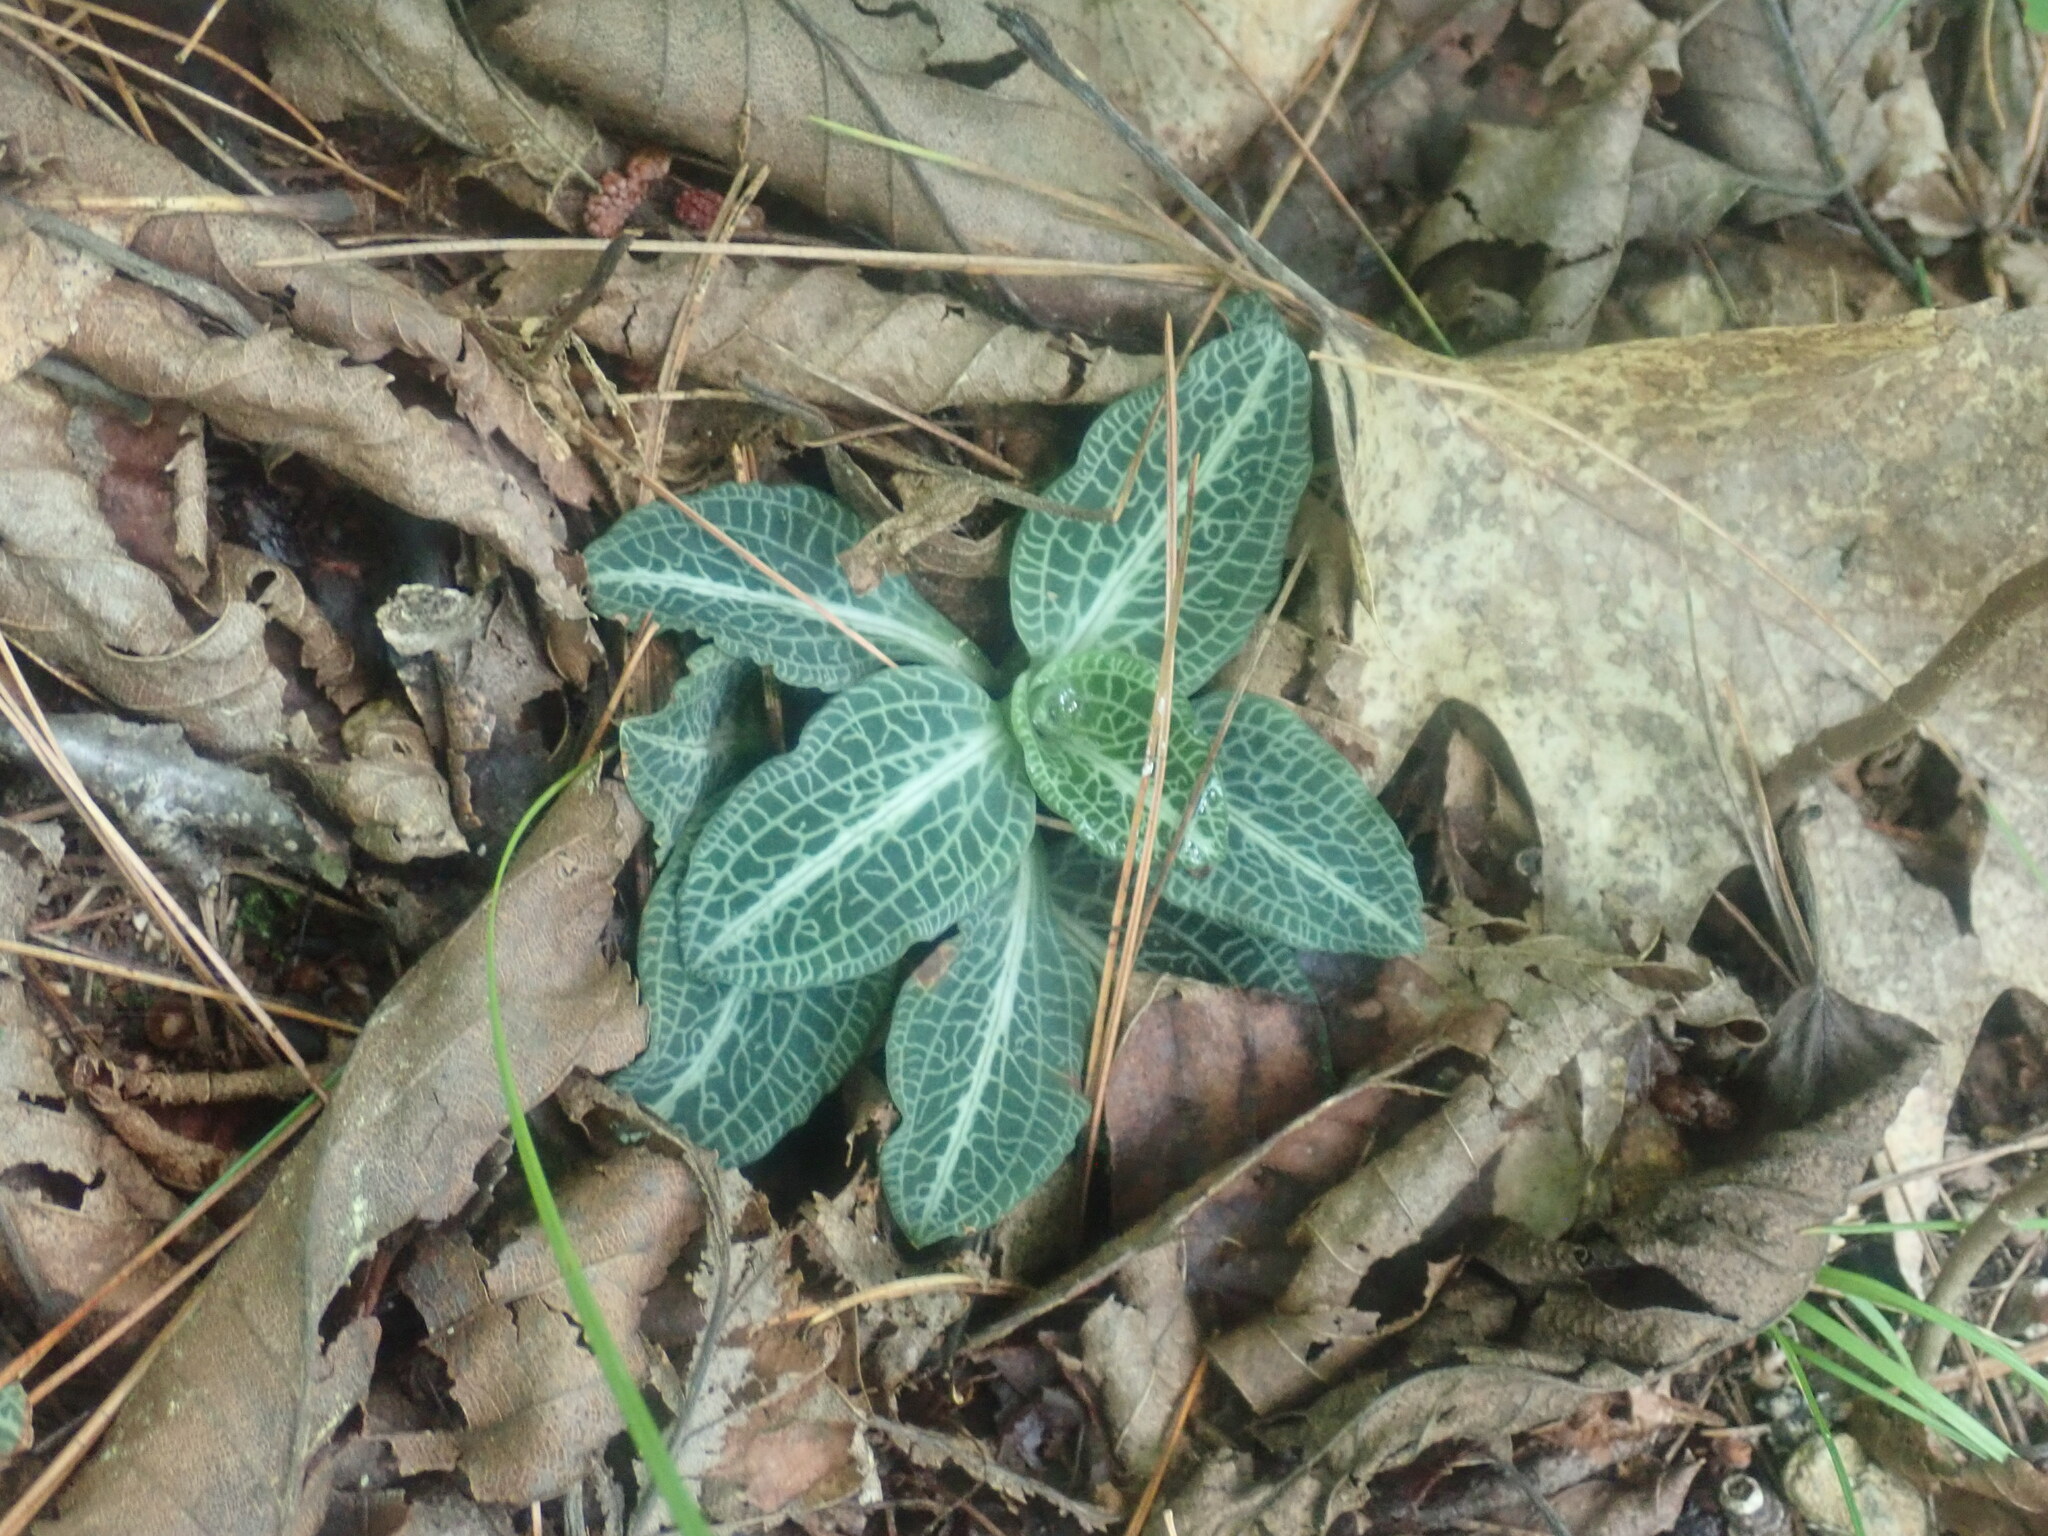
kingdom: Plantae
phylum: Tracheophyta
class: Liliopsida
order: Asparagales
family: Orchidaceae
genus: Goodyera
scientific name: Goodyera pubescens
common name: Downy rattlesnake-plantain
